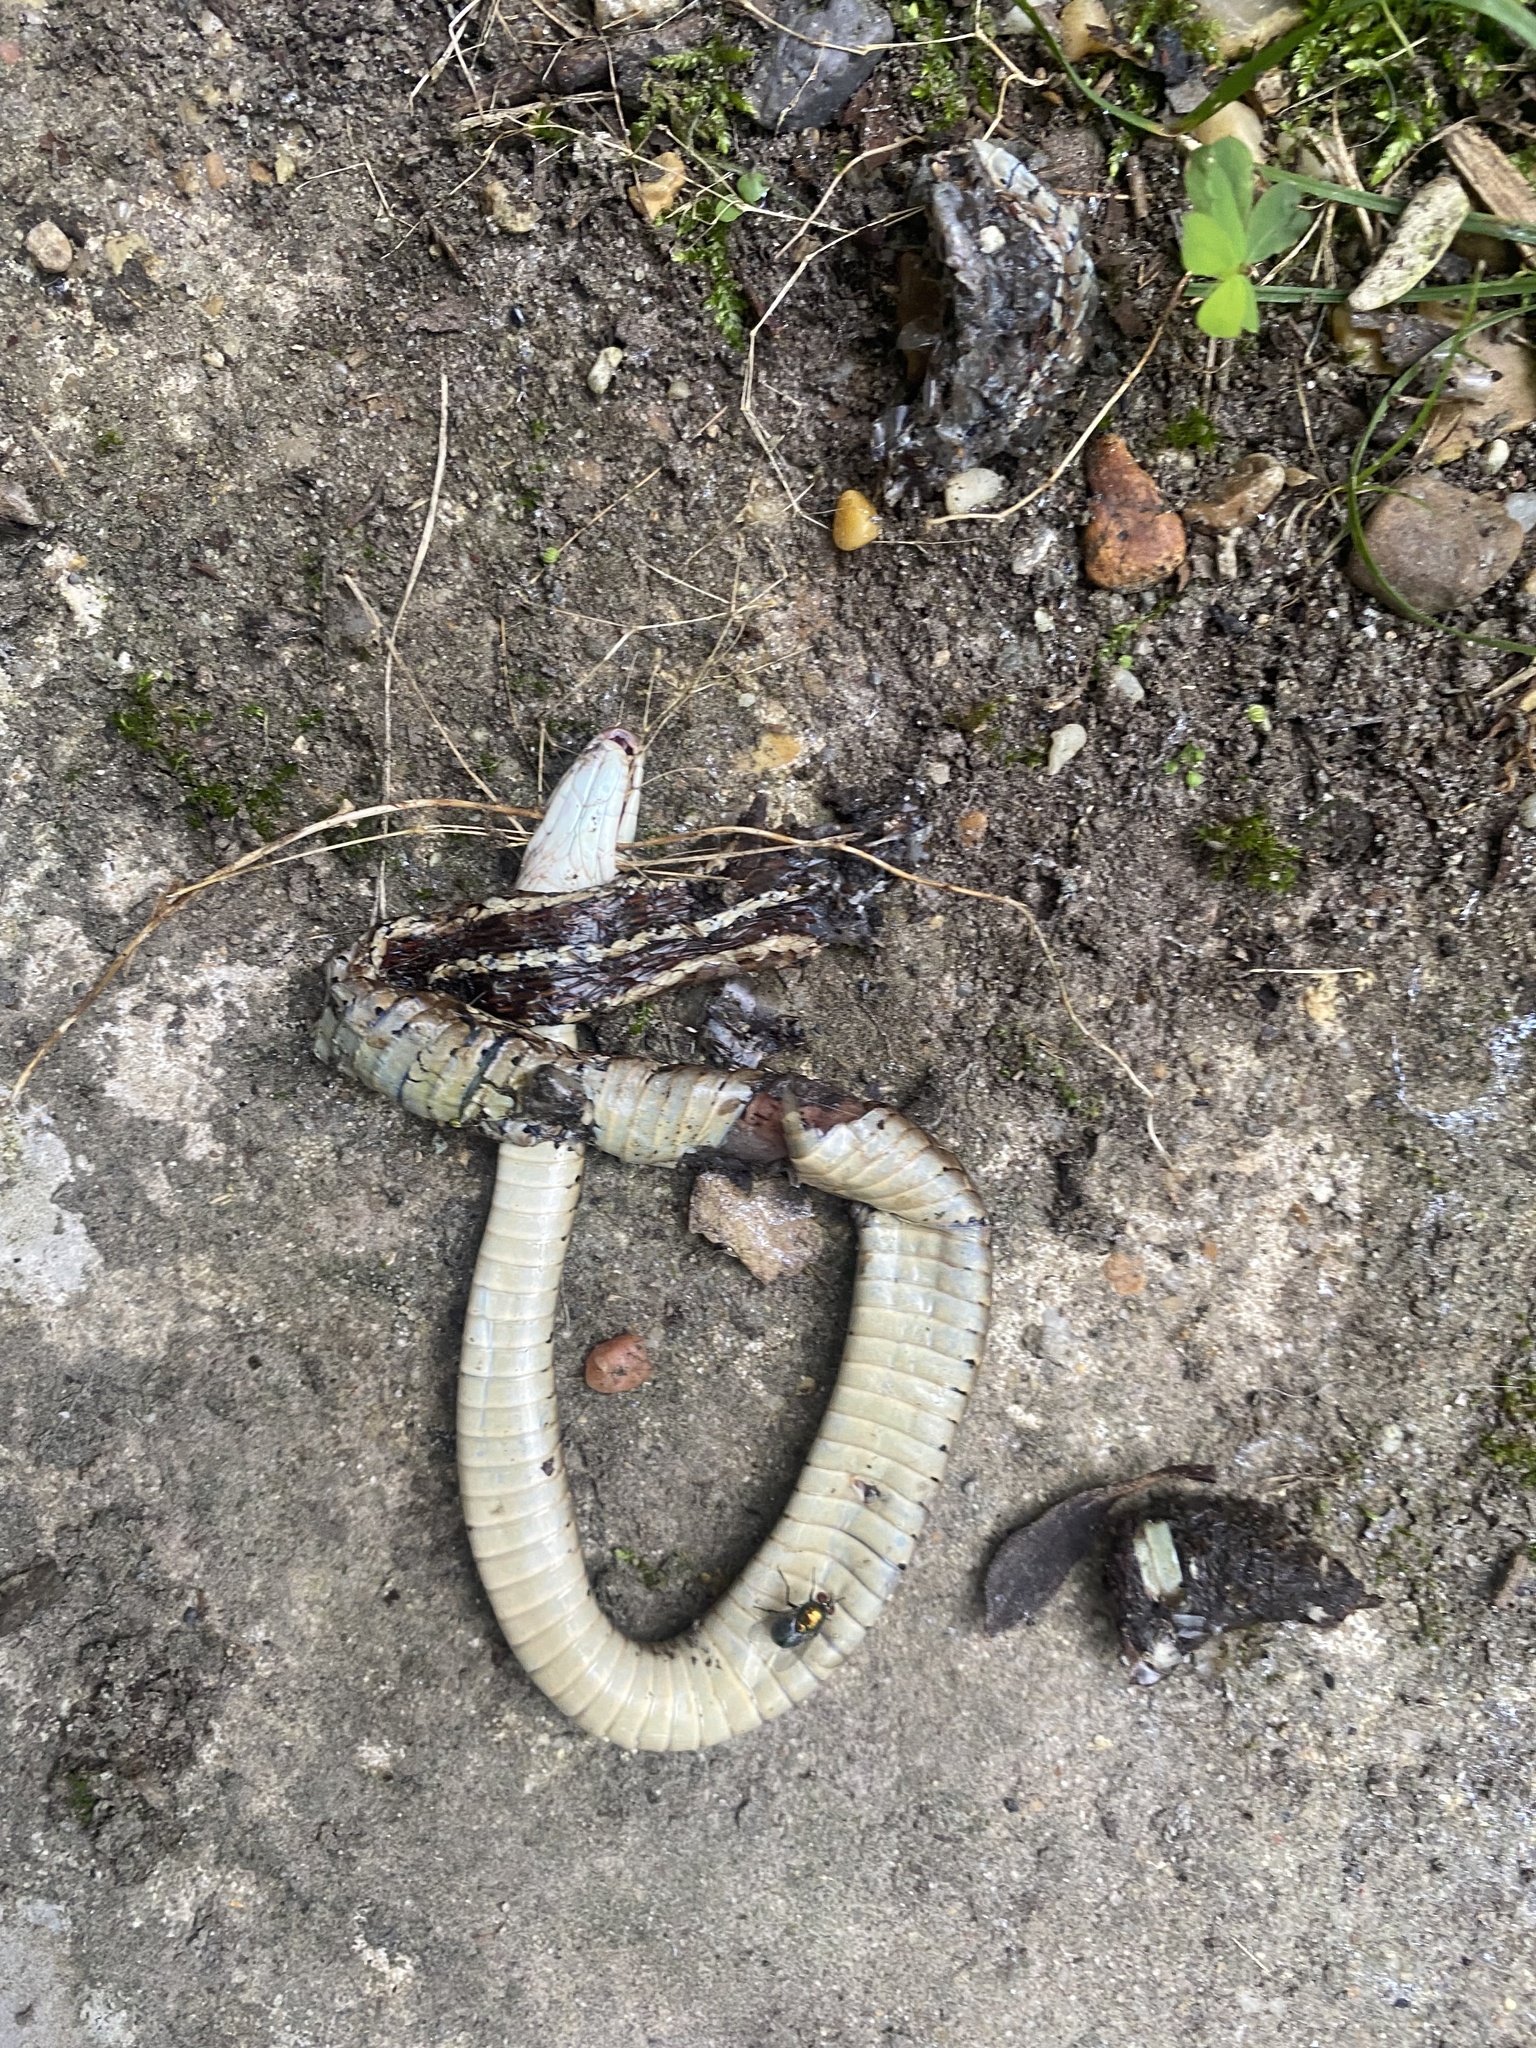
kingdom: Animalia
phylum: Chordata
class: Squamata
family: Colubridae
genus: Thamnophis
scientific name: Thamnophis proximus
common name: Western ribbon snake
